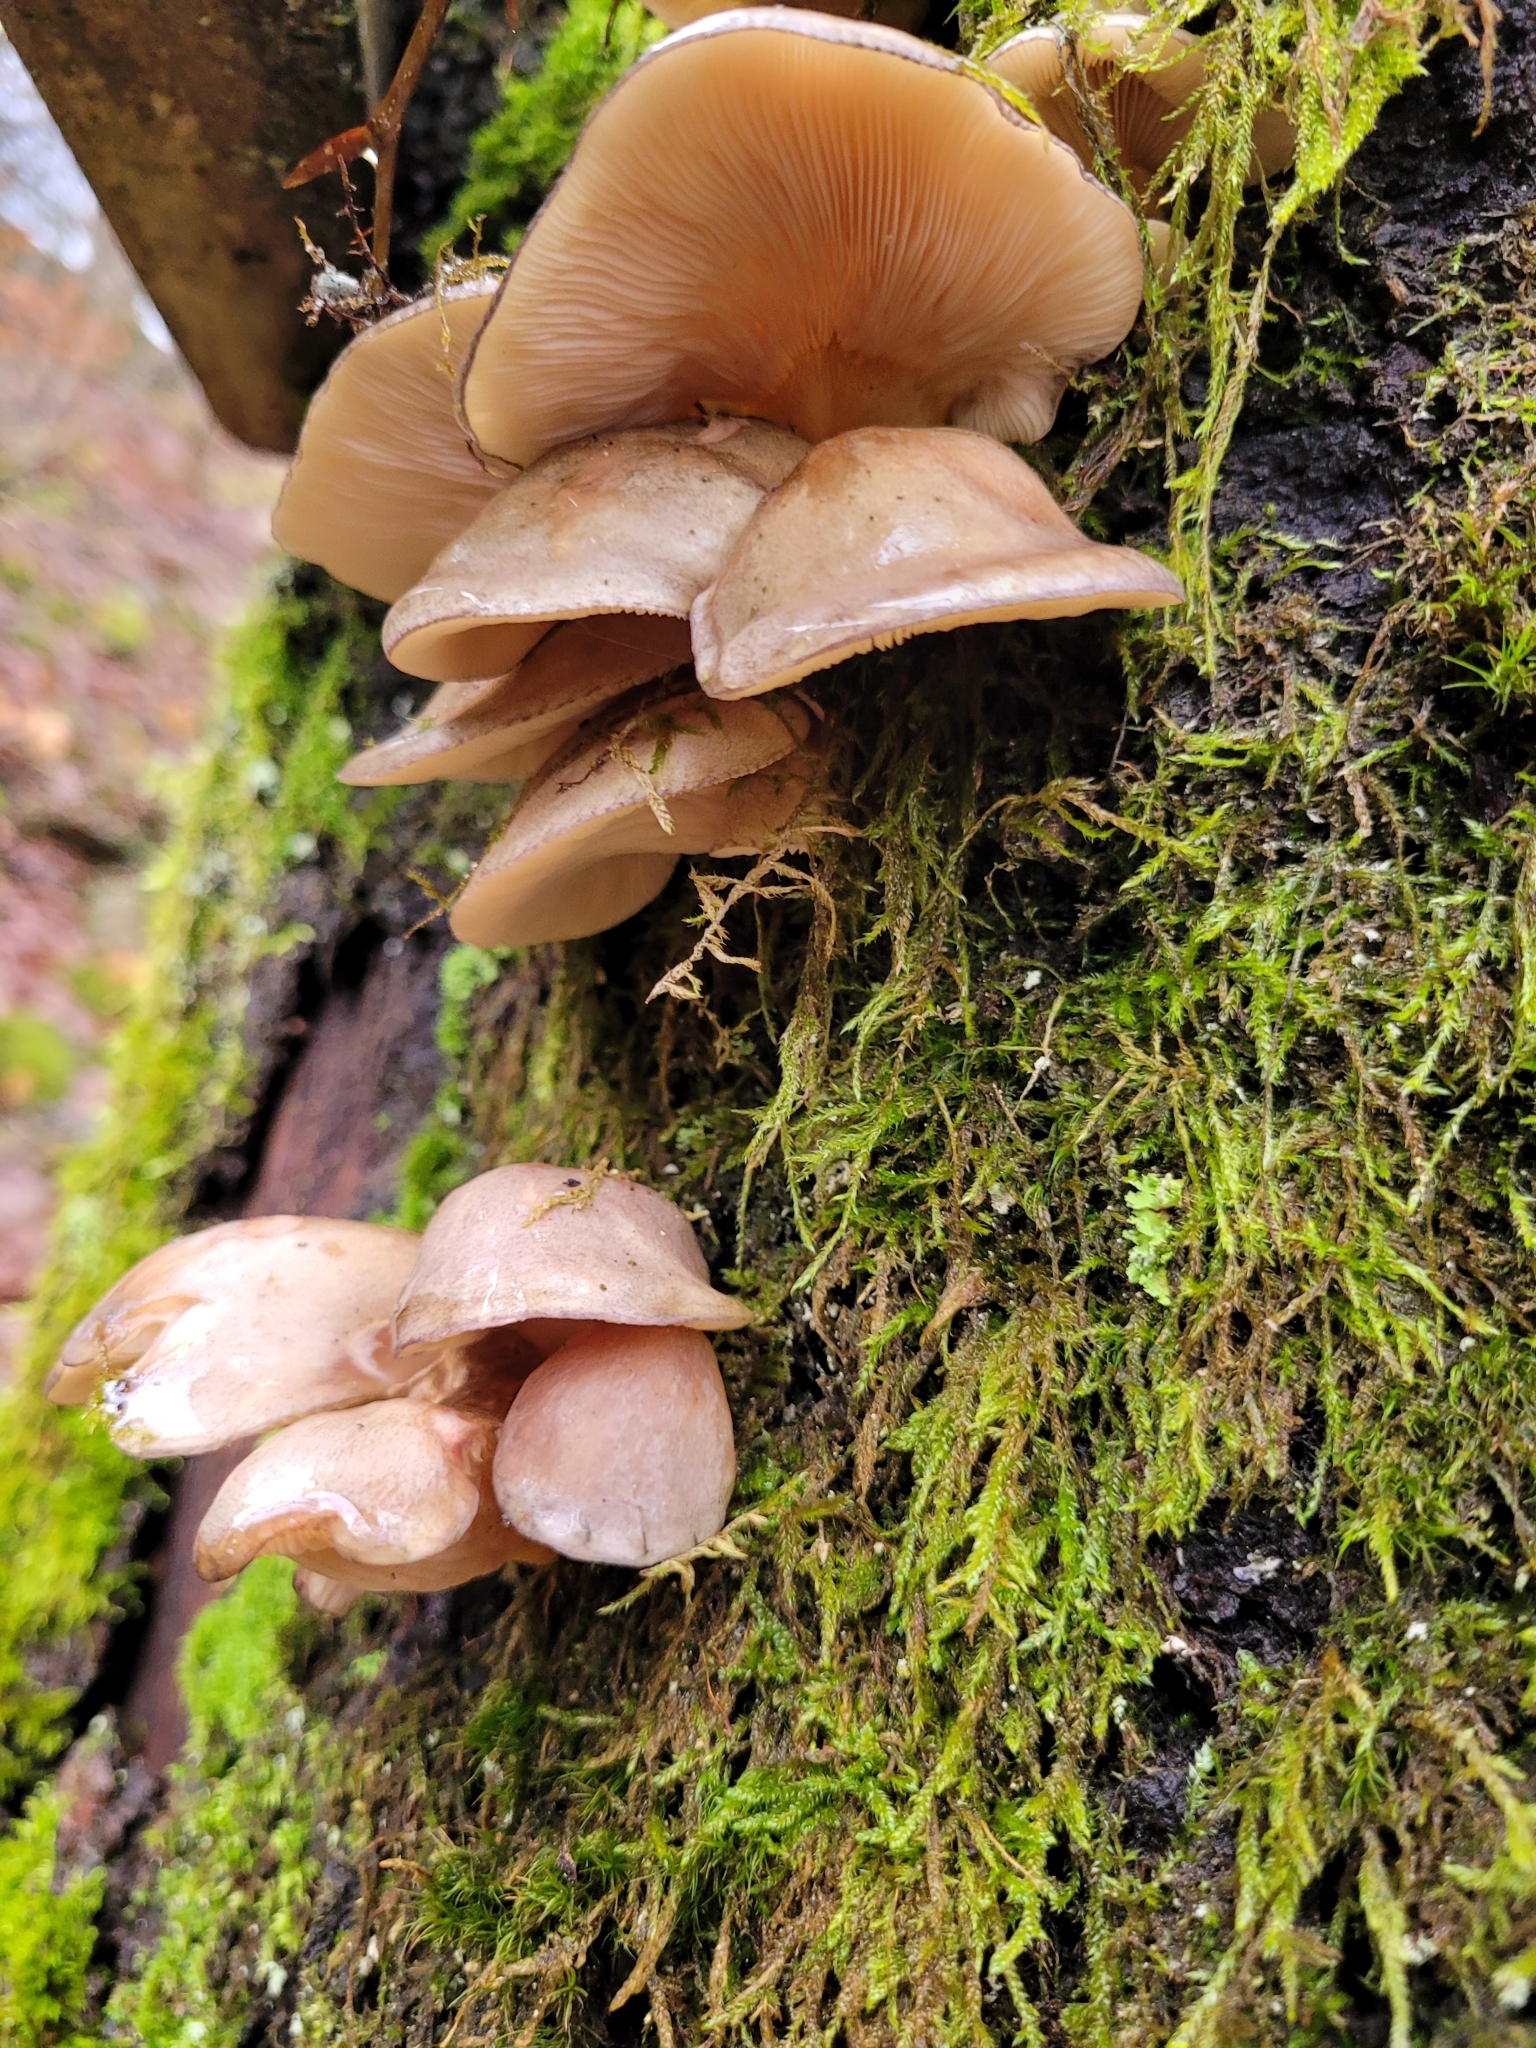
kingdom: Fungi
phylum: Basidiomycota
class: Agaricomycetes
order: Agaricales
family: Sarcomyxaceae
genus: Sarcomyxa
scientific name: Sarcomyxa serotina
